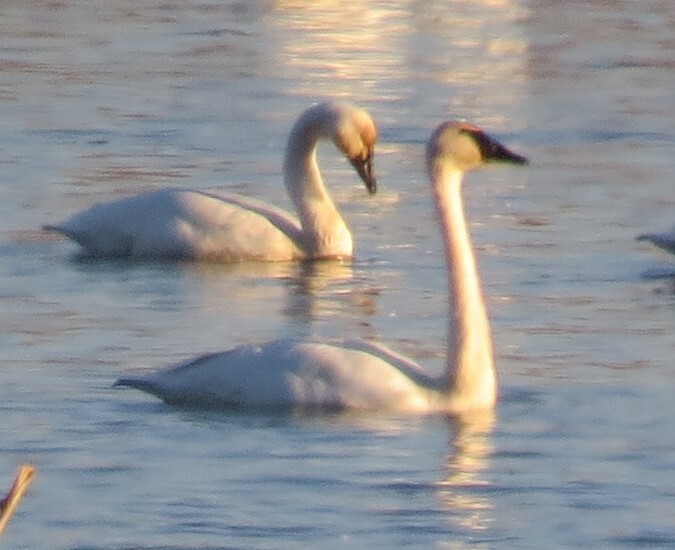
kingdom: Animalia
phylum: Chordata
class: Aves
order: Anseriformes
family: Anatidae
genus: Cygnus
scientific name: Cygnus columbianus
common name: Tundra swan
